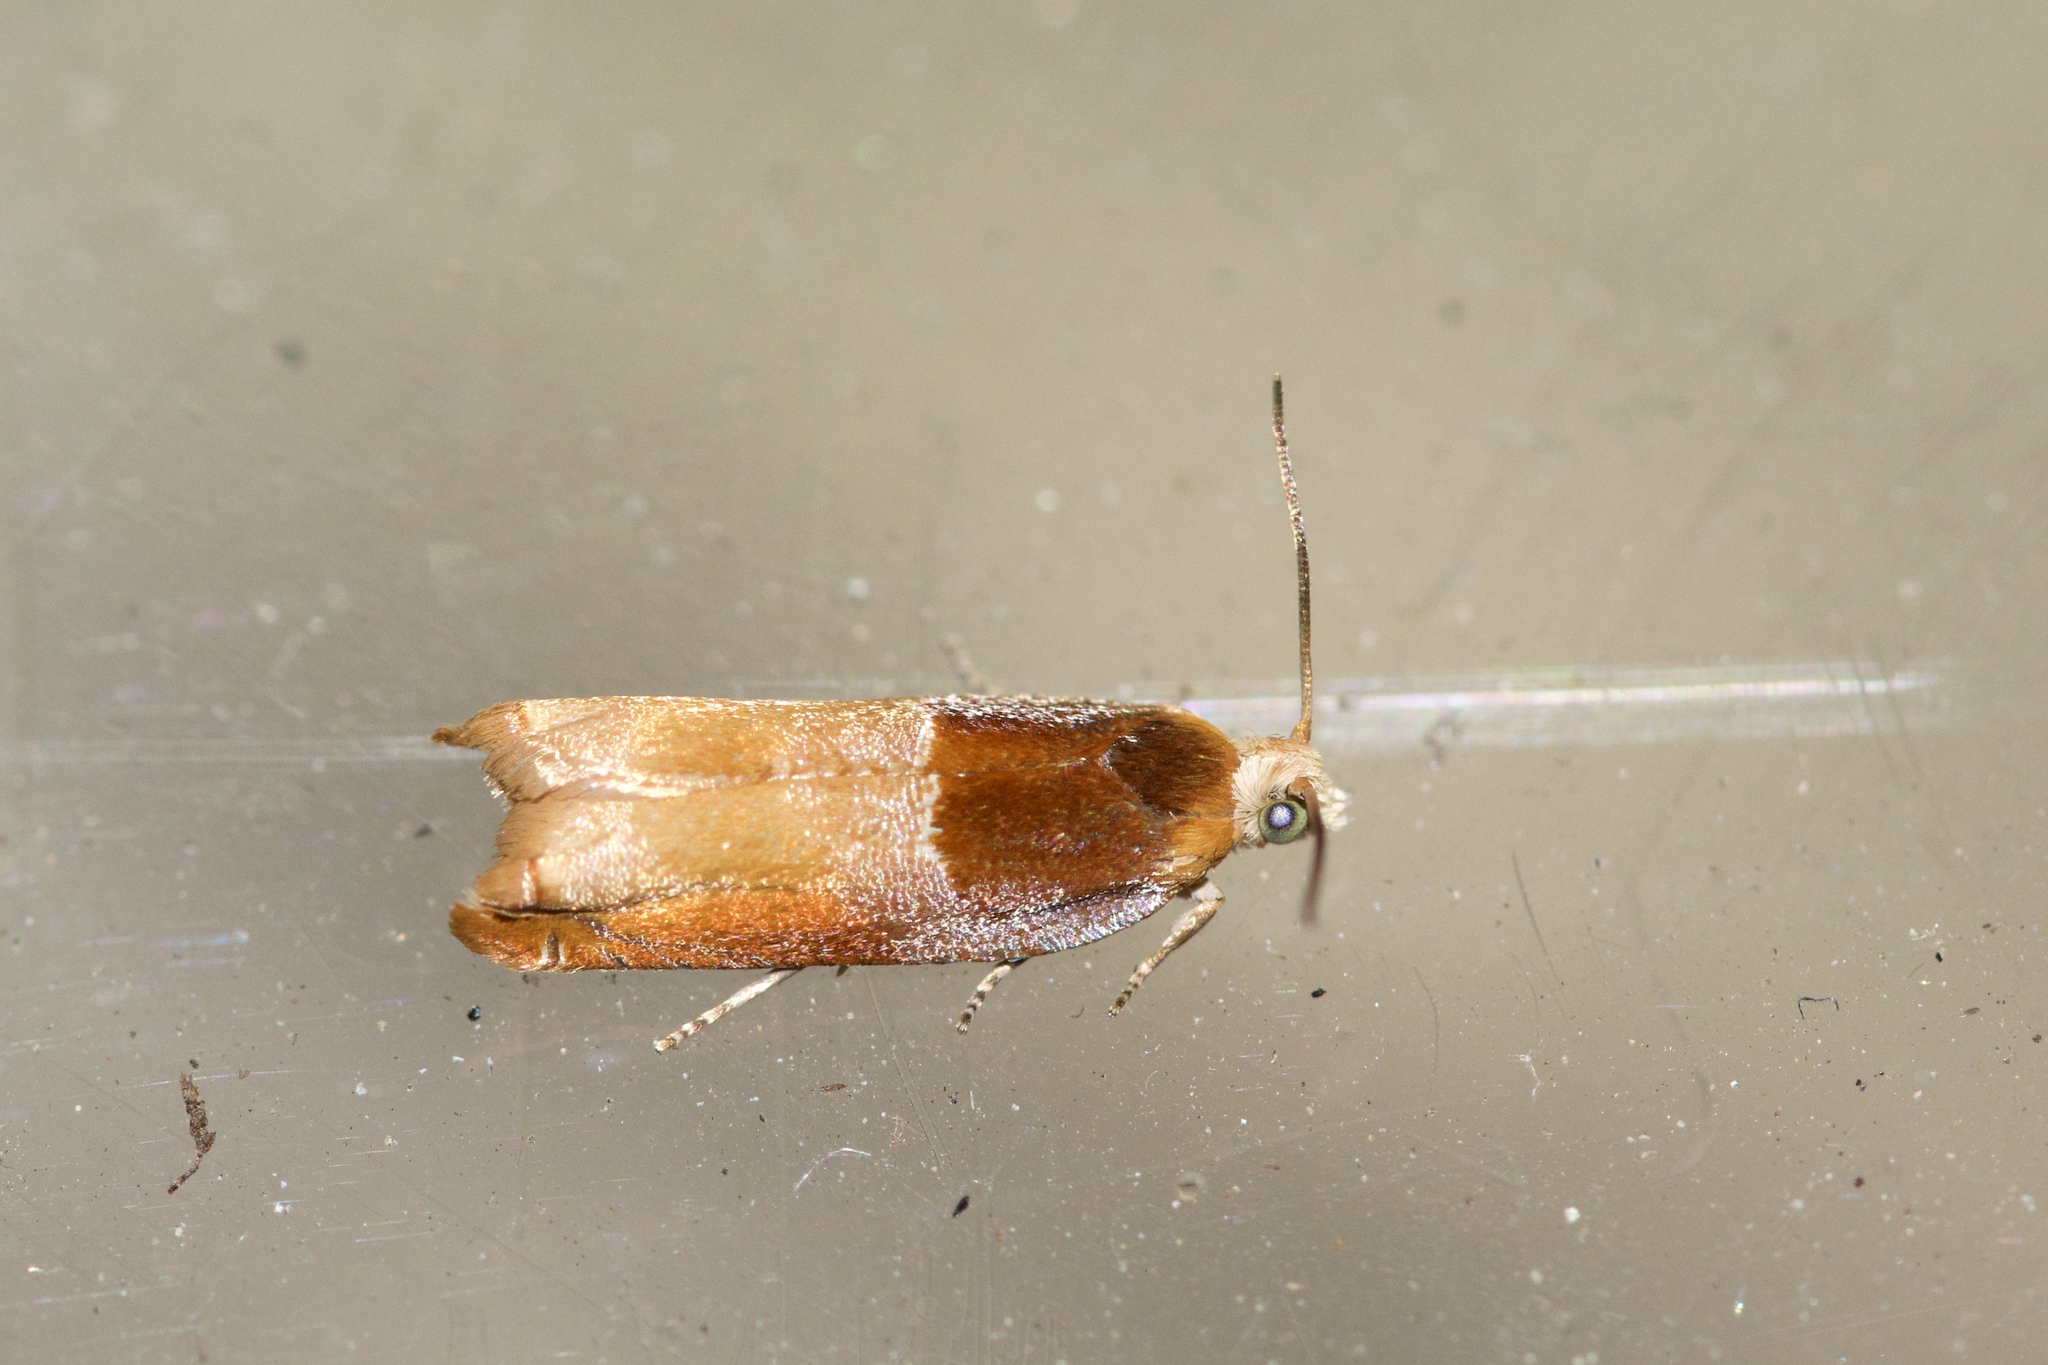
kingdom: Animalia
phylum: Arthropoda
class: Insecta
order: Lepidoptera
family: Tortricidae
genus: Ancylis
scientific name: Ancylis divisana
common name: Two-toned ancylis moth
